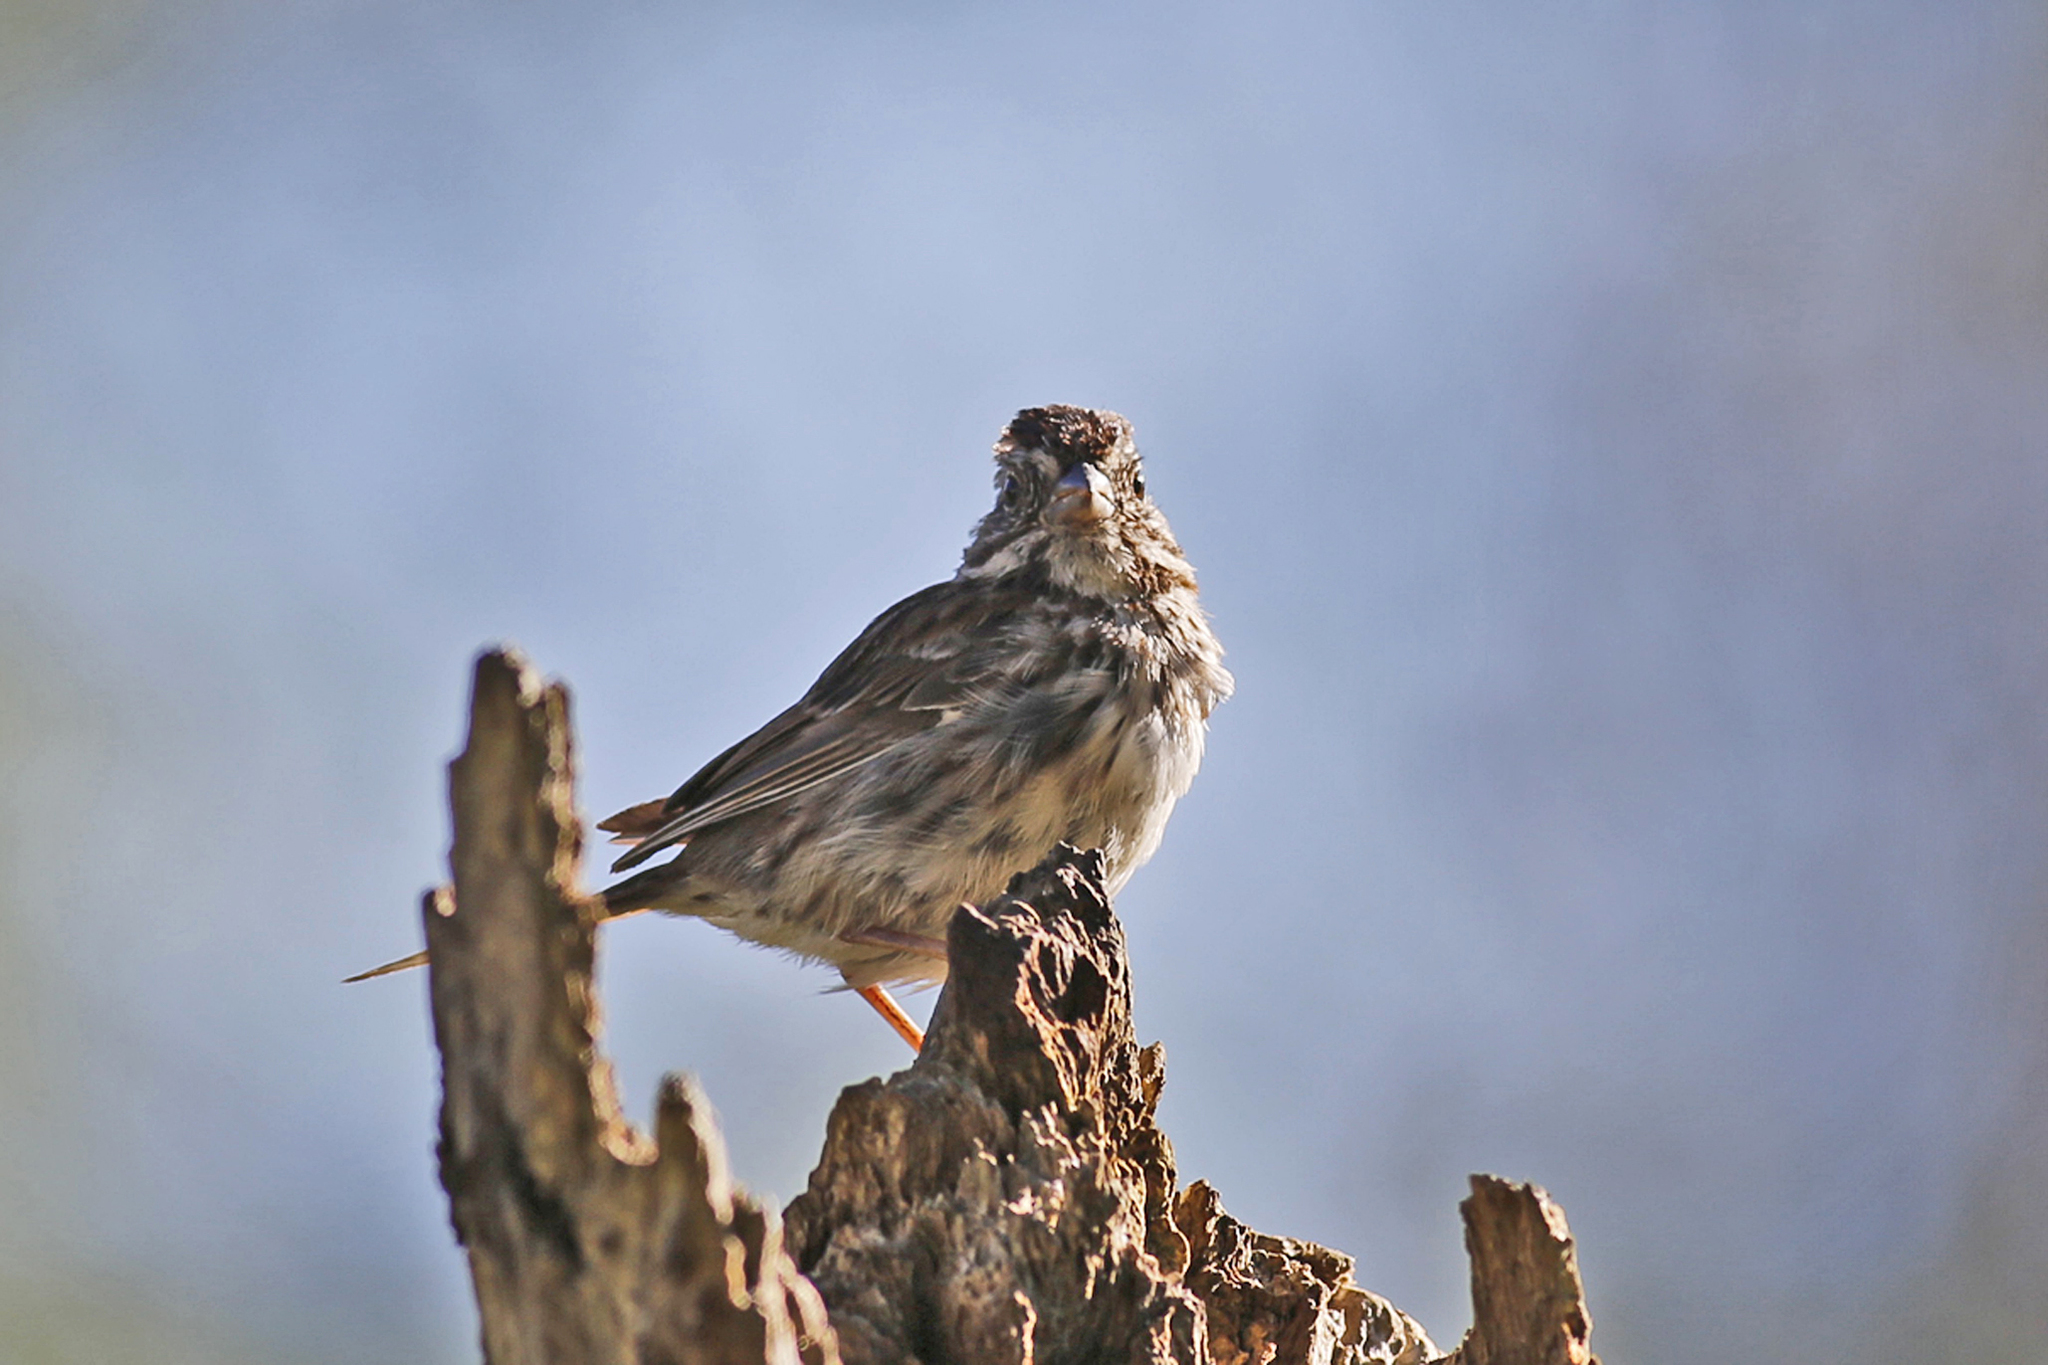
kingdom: Animalia
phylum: Chordata
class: Aves
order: Passeriformes
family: Passerellidae
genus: Melospiza
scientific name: Melospiza melodia
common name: Song sparrow
